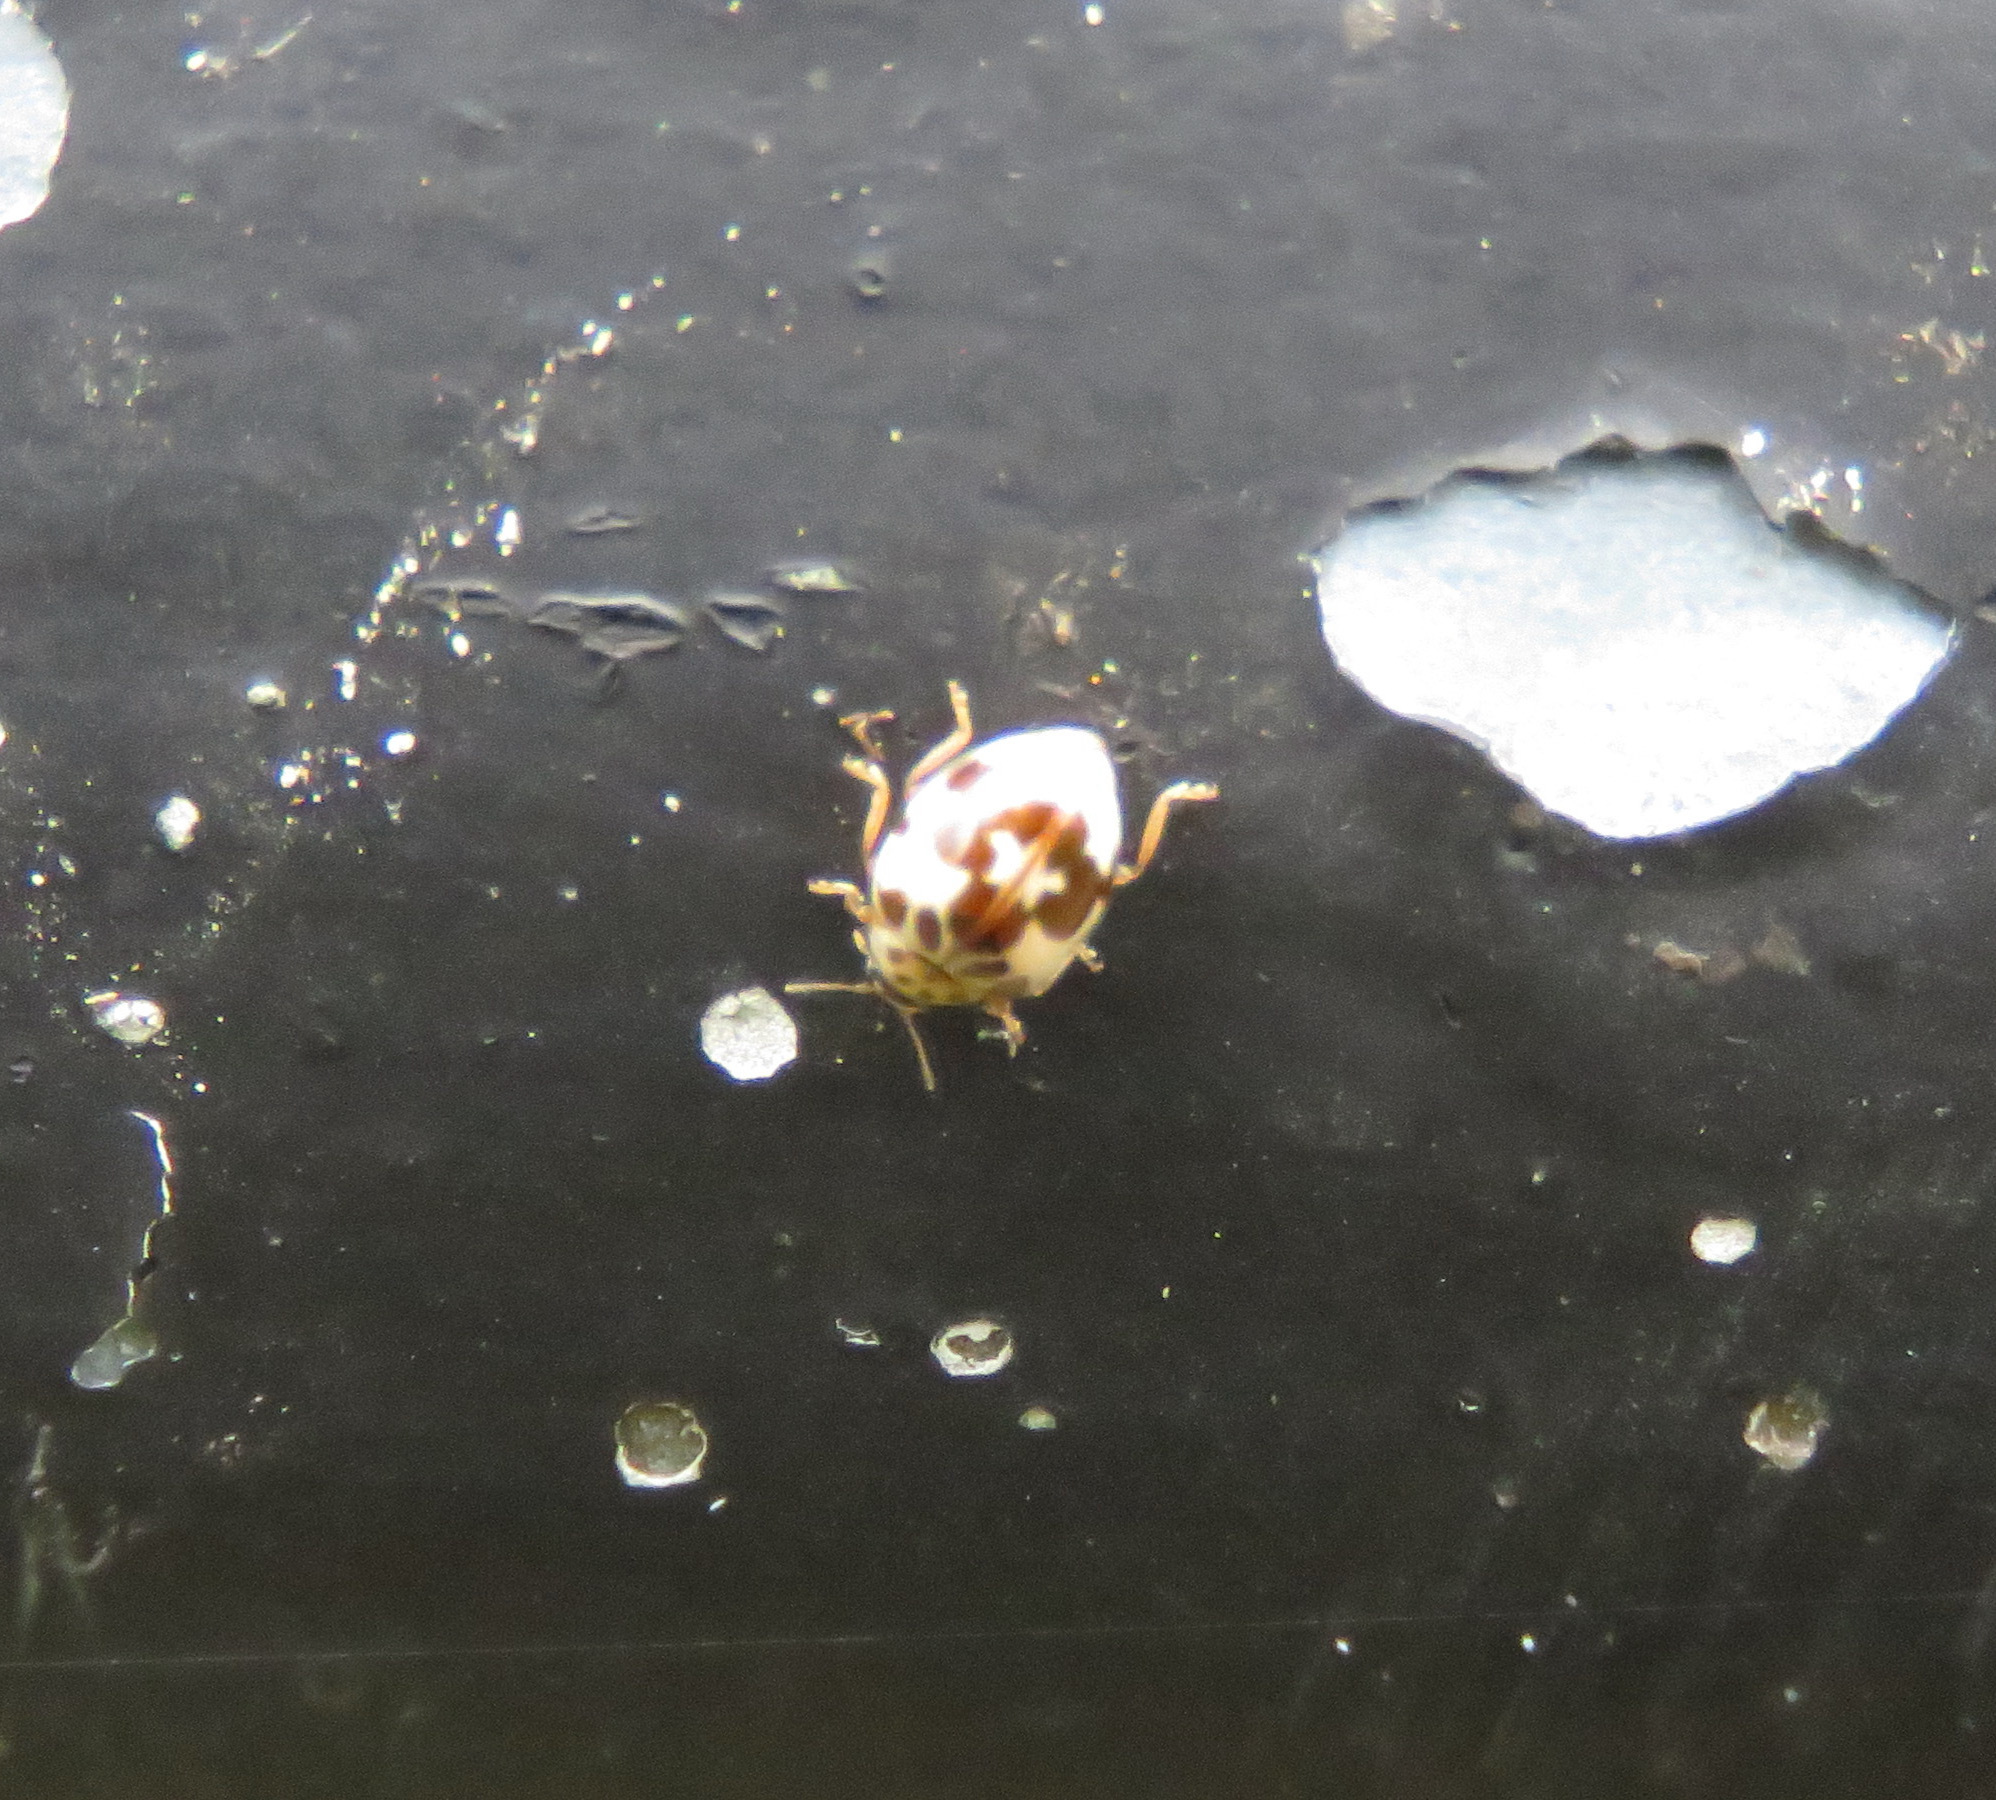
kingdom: Animalia
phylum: Arthropoda
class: Insecta
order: Coleoptera
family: Coccinellidae
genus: Psyllobora
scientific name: Psyllobora borealis
